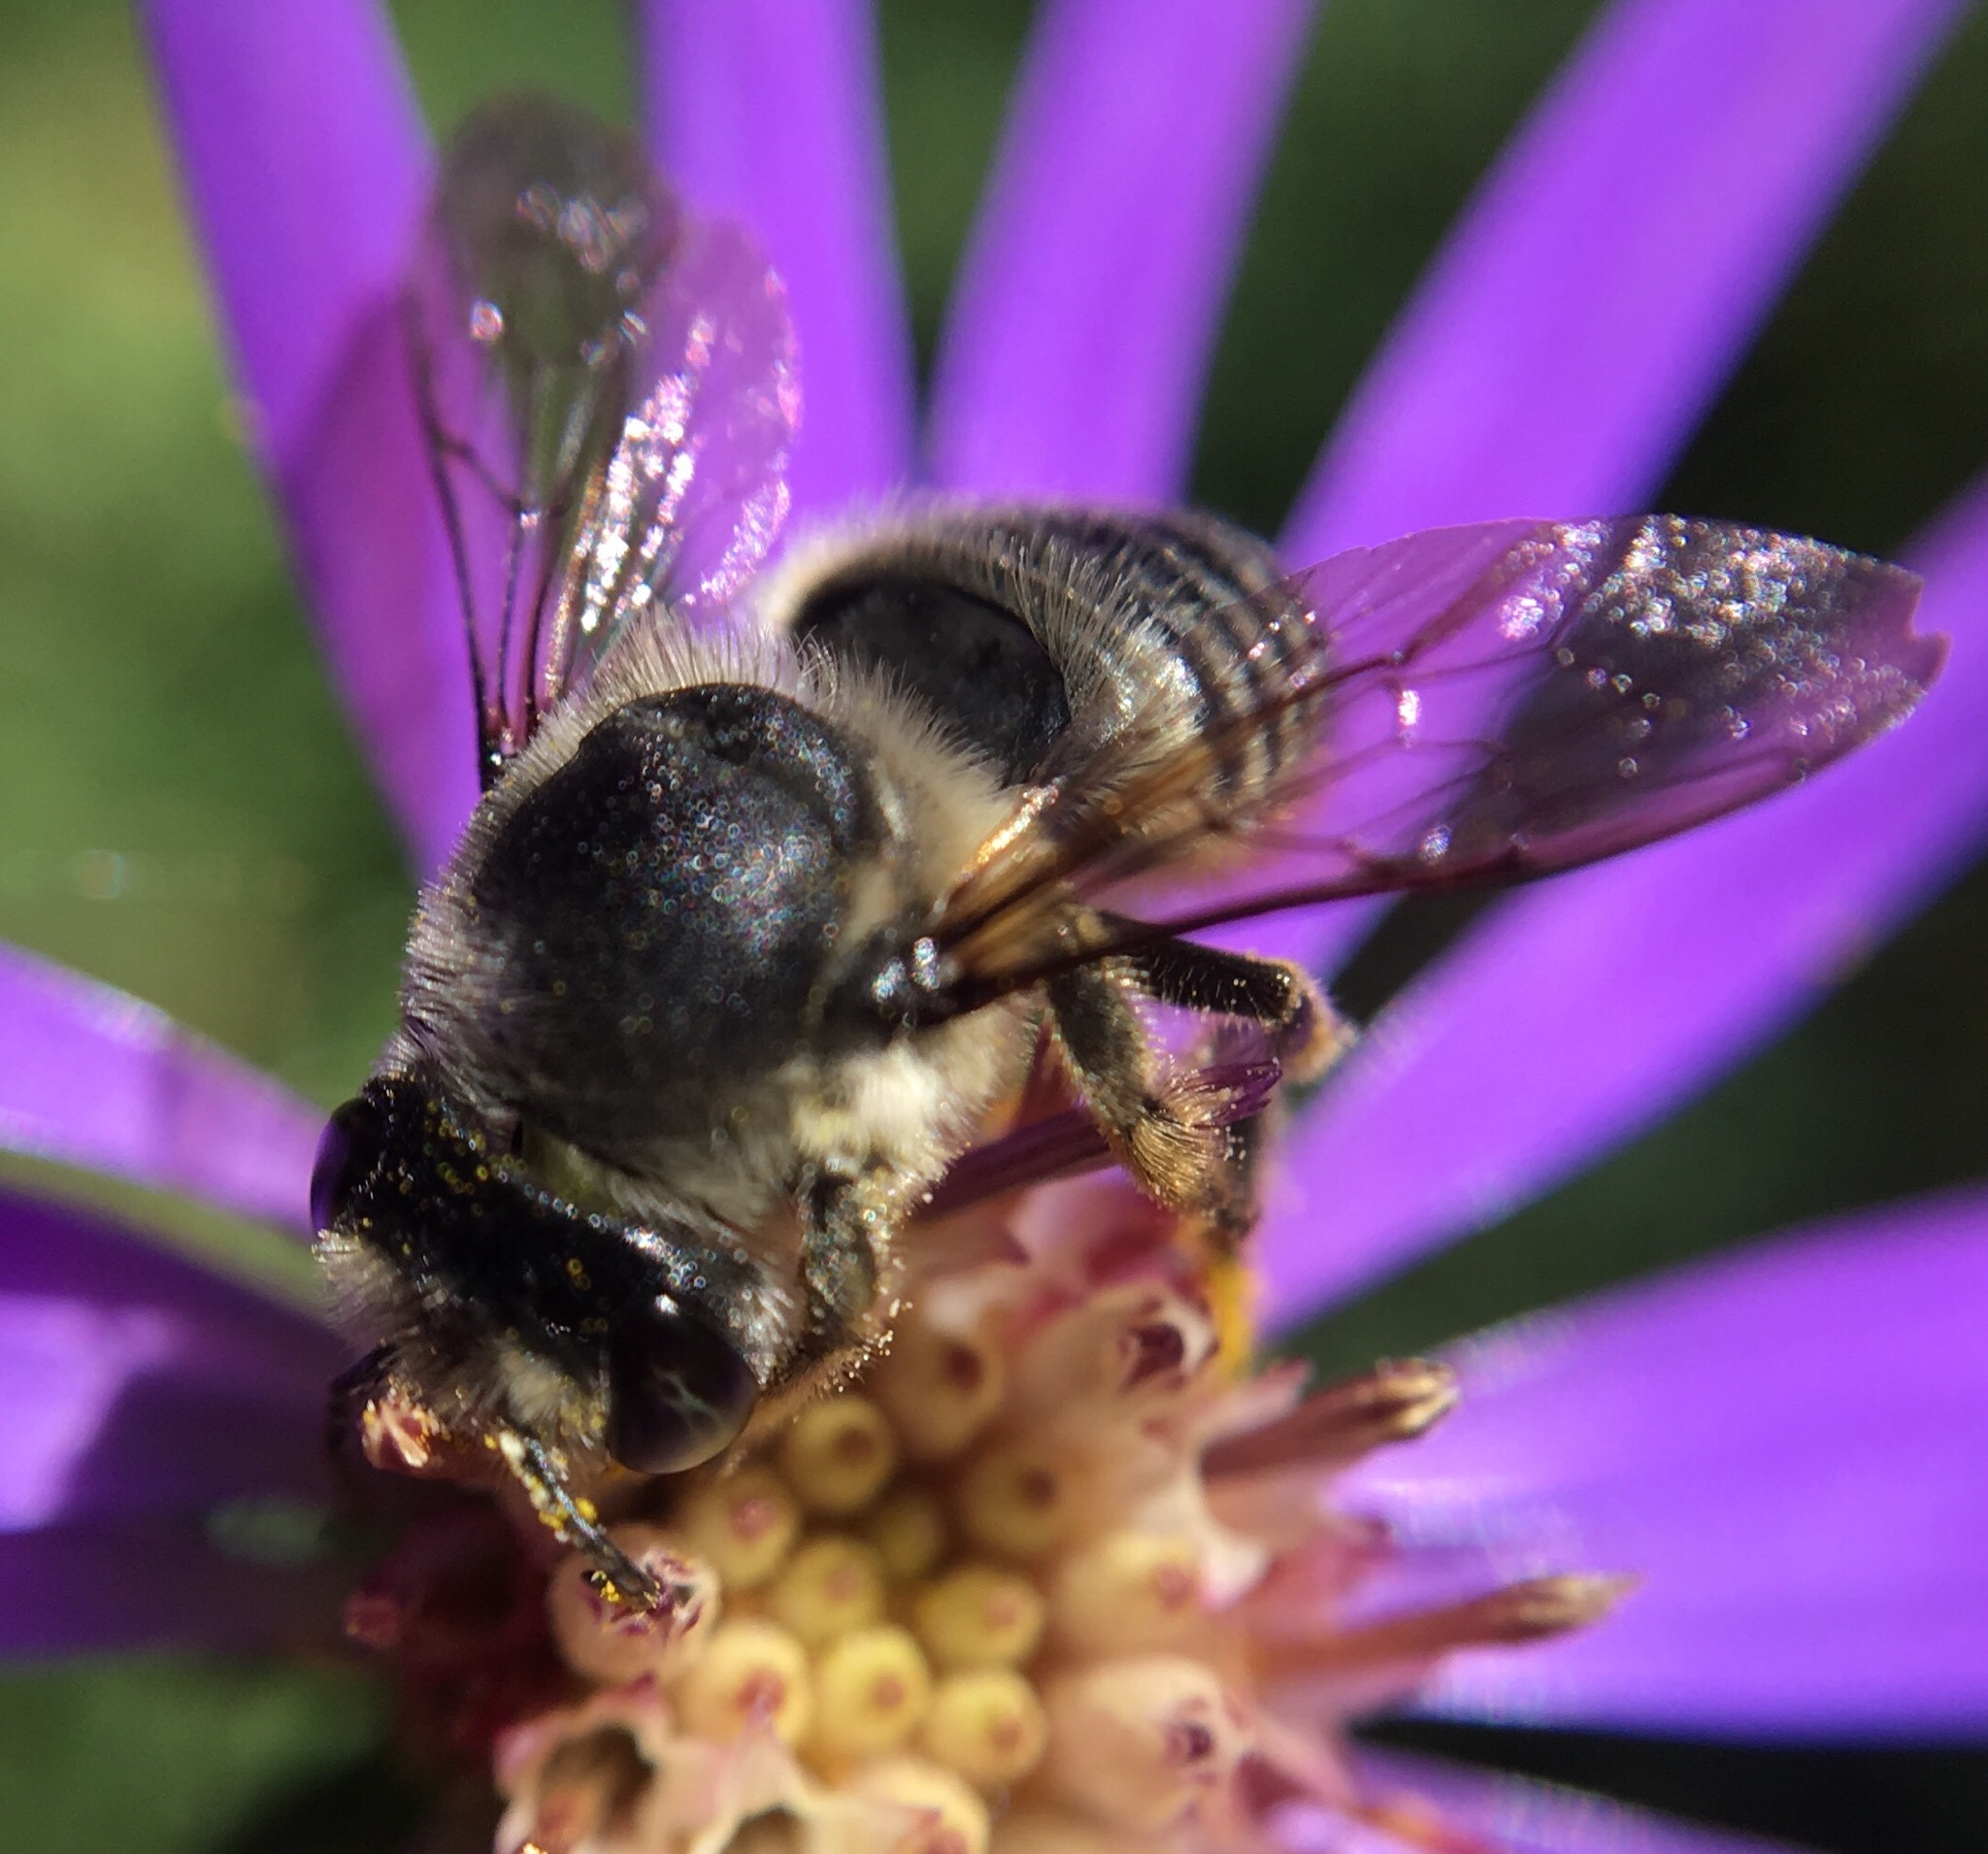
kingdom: Animalia
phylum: Arthropoda
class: Insecta
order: Hymenoptera
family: Megachilidae
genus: Megachile
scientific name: Megachile mendica
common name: Flat-tailed leafcutter
